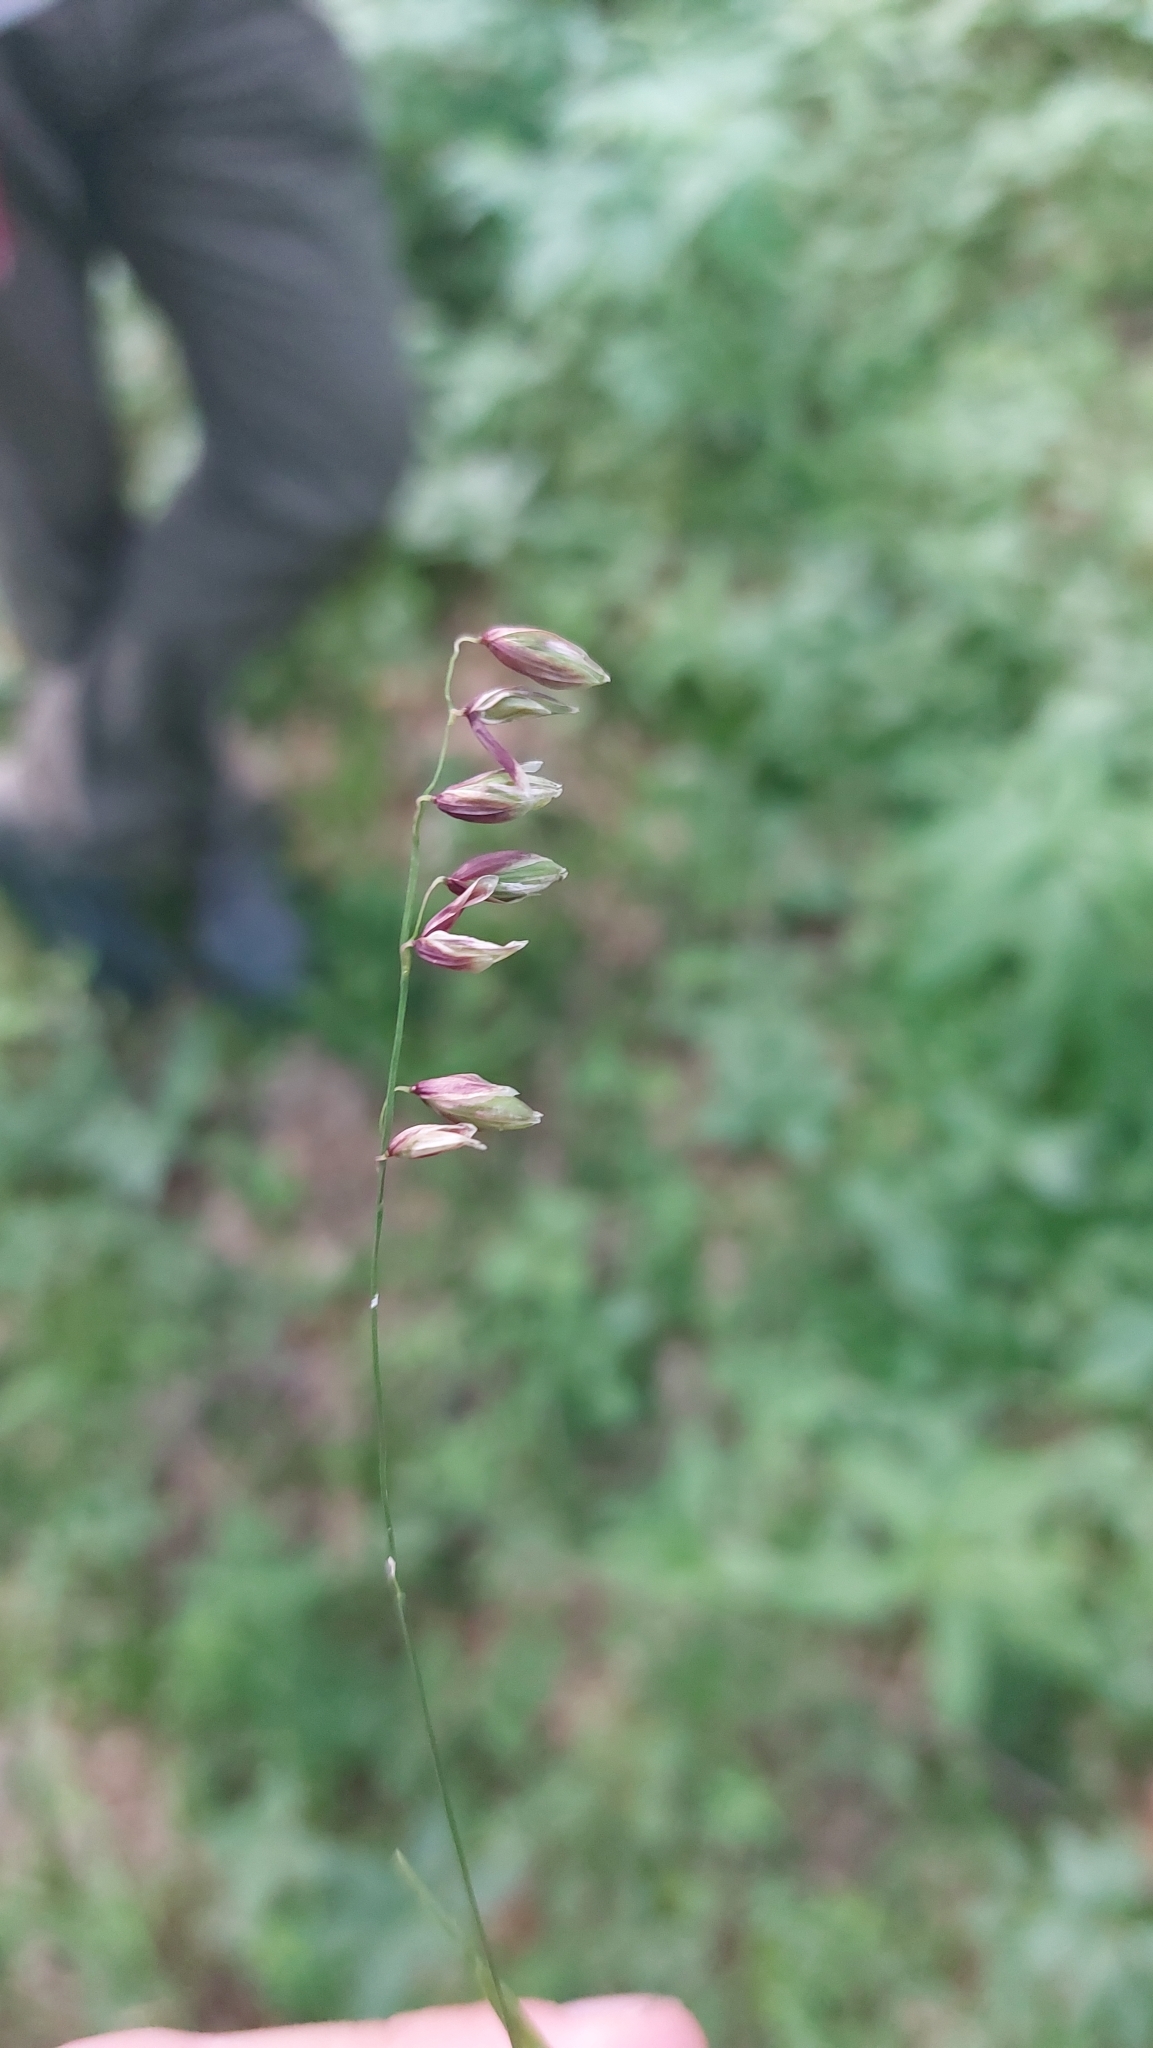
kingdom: Plantae
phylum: Tracheophyta
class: Liliopsida
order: Poales
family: Poaceae
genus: Melica
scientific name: Melica nutans
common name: Mountain melick
